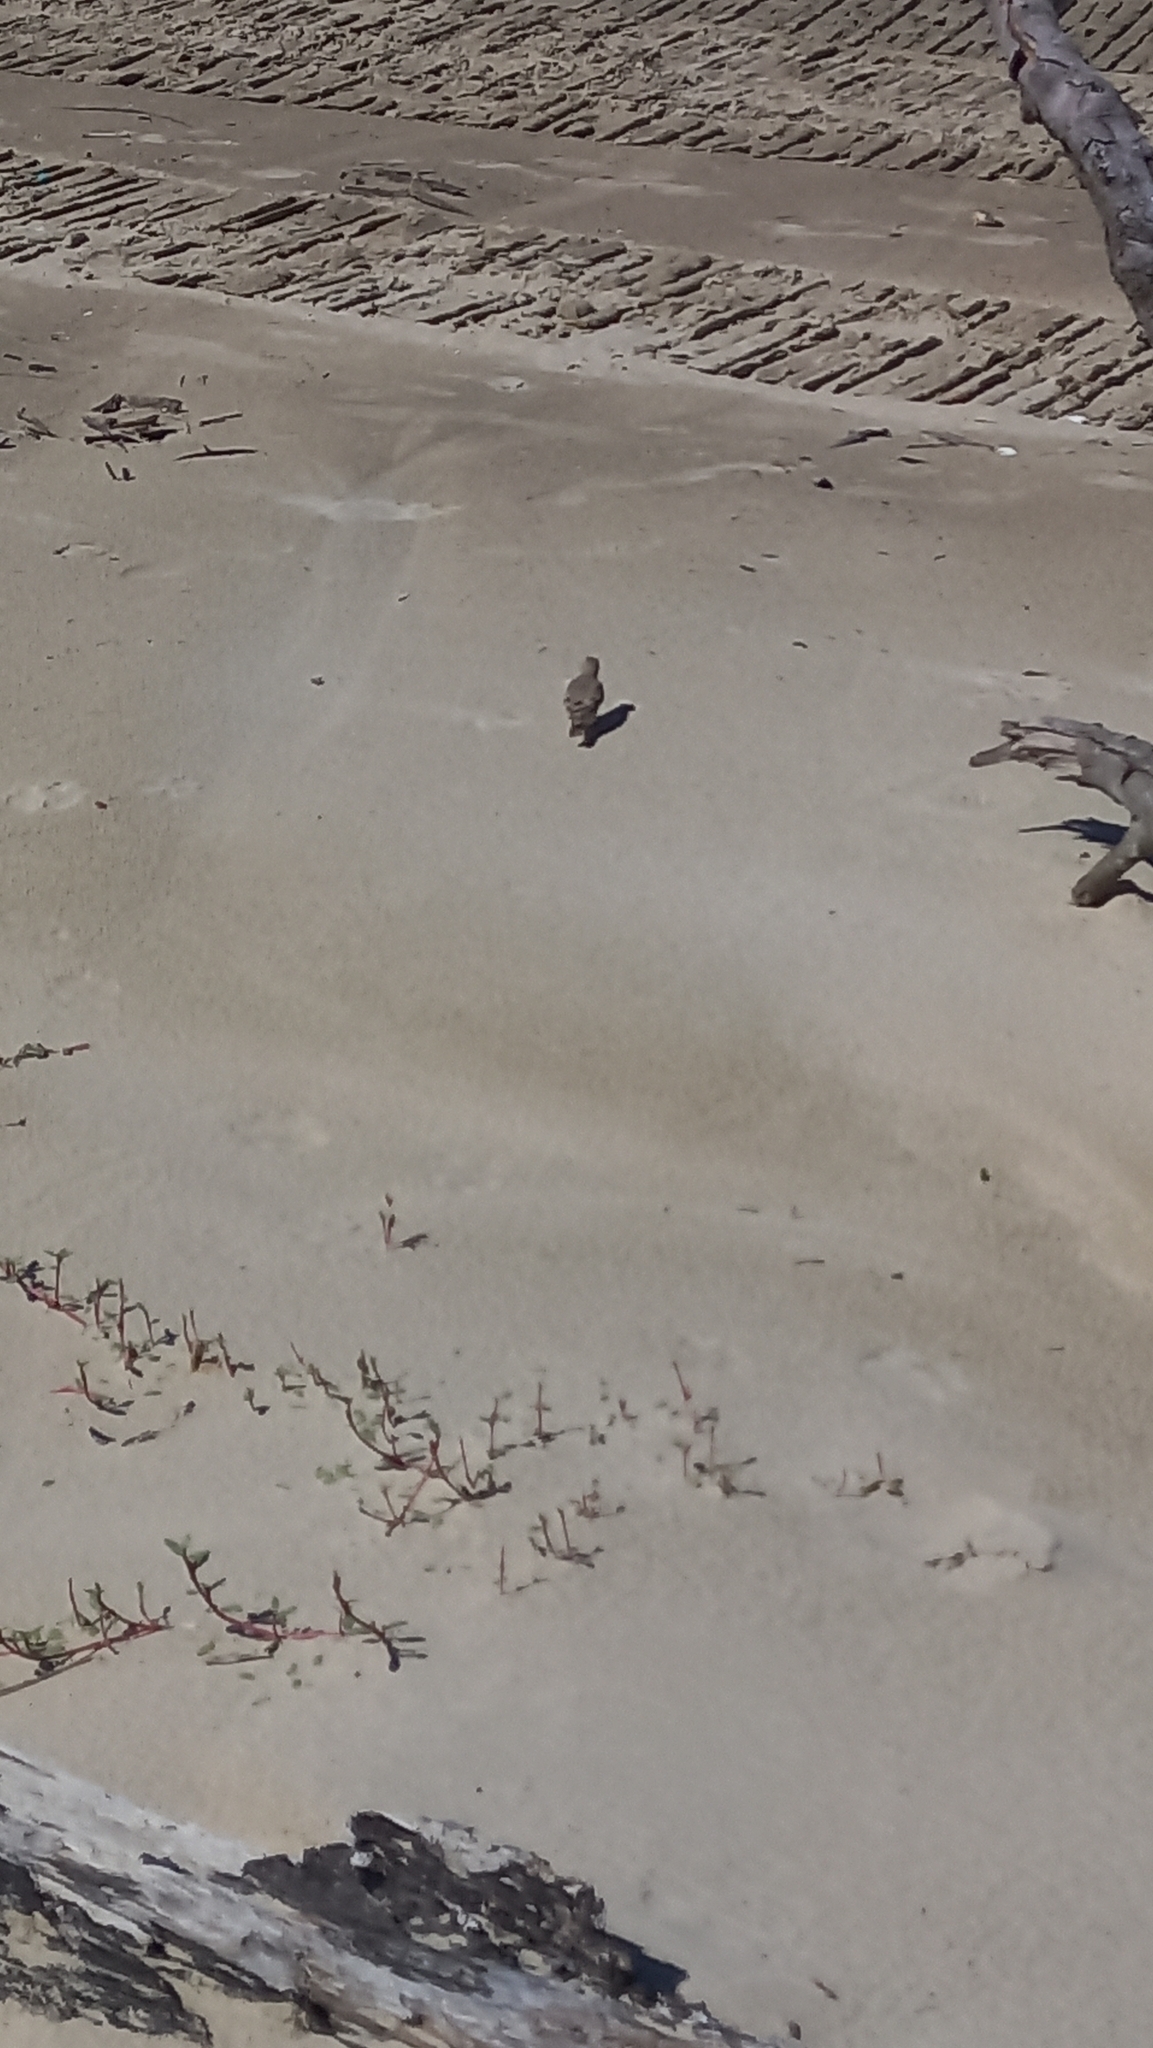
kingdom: Animalia
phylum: Chordata
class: Aves
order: Passeriformes
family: Furnariidae
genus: Geositta
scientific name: Geositta cunicularia
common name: Common miner
